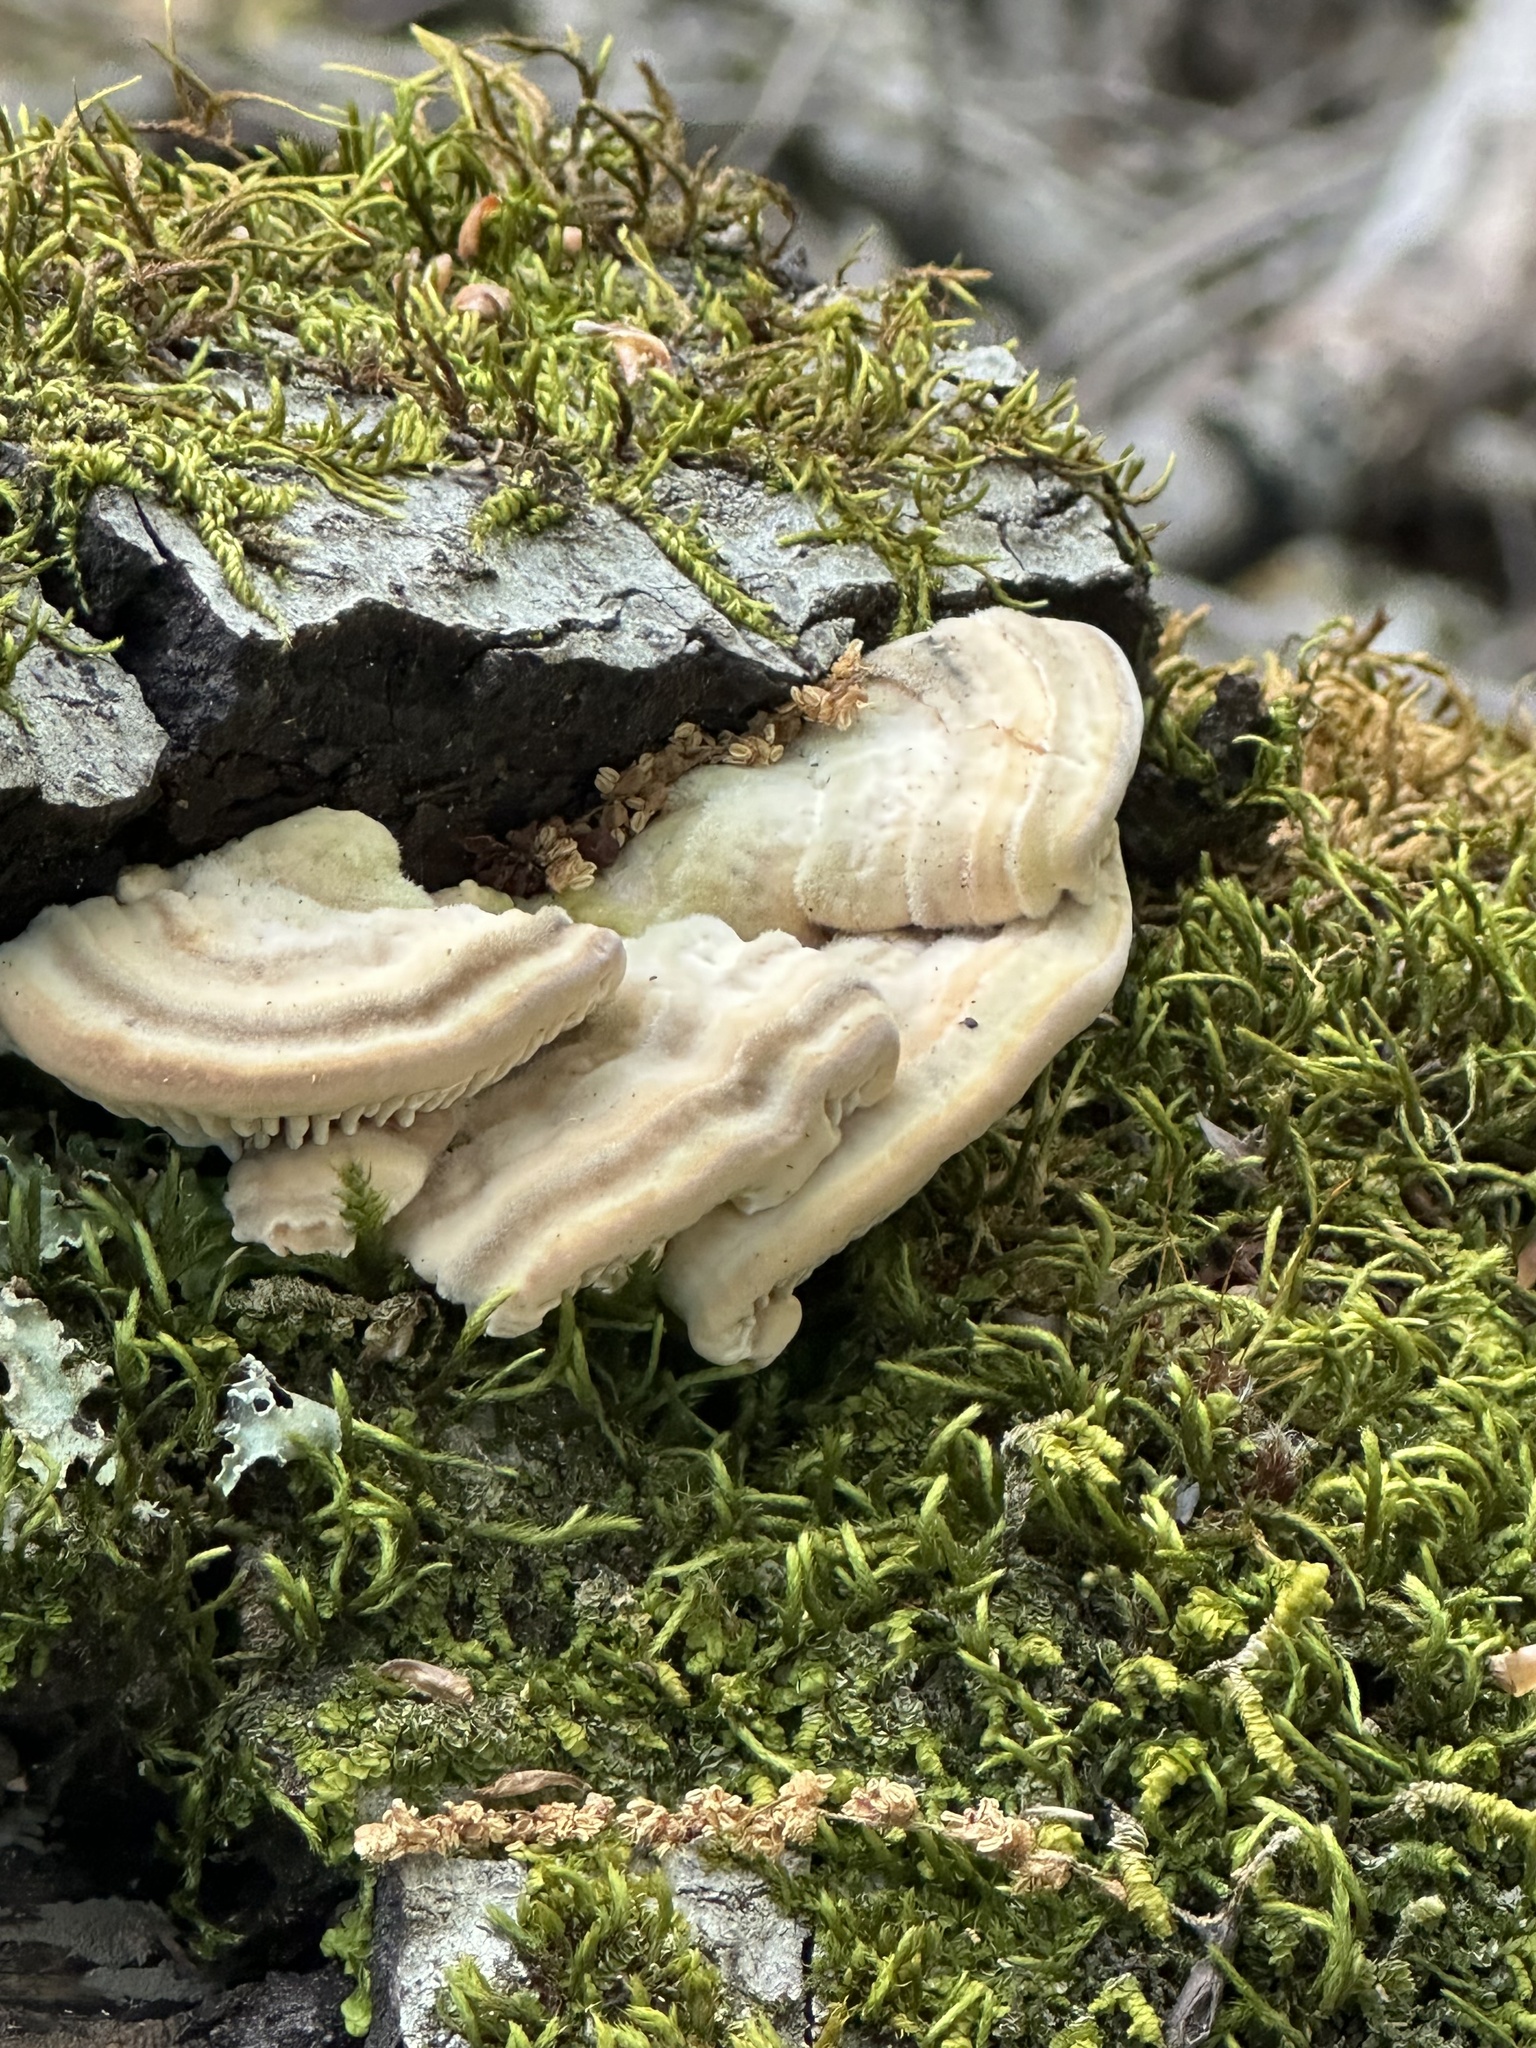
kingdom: Fungi
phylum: Basidiomycota
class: Agaricomycetes
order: Polyporales
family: Polyporaceae
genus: Lenzites
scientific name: Lenzites betulinus
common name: Birch mazegill
